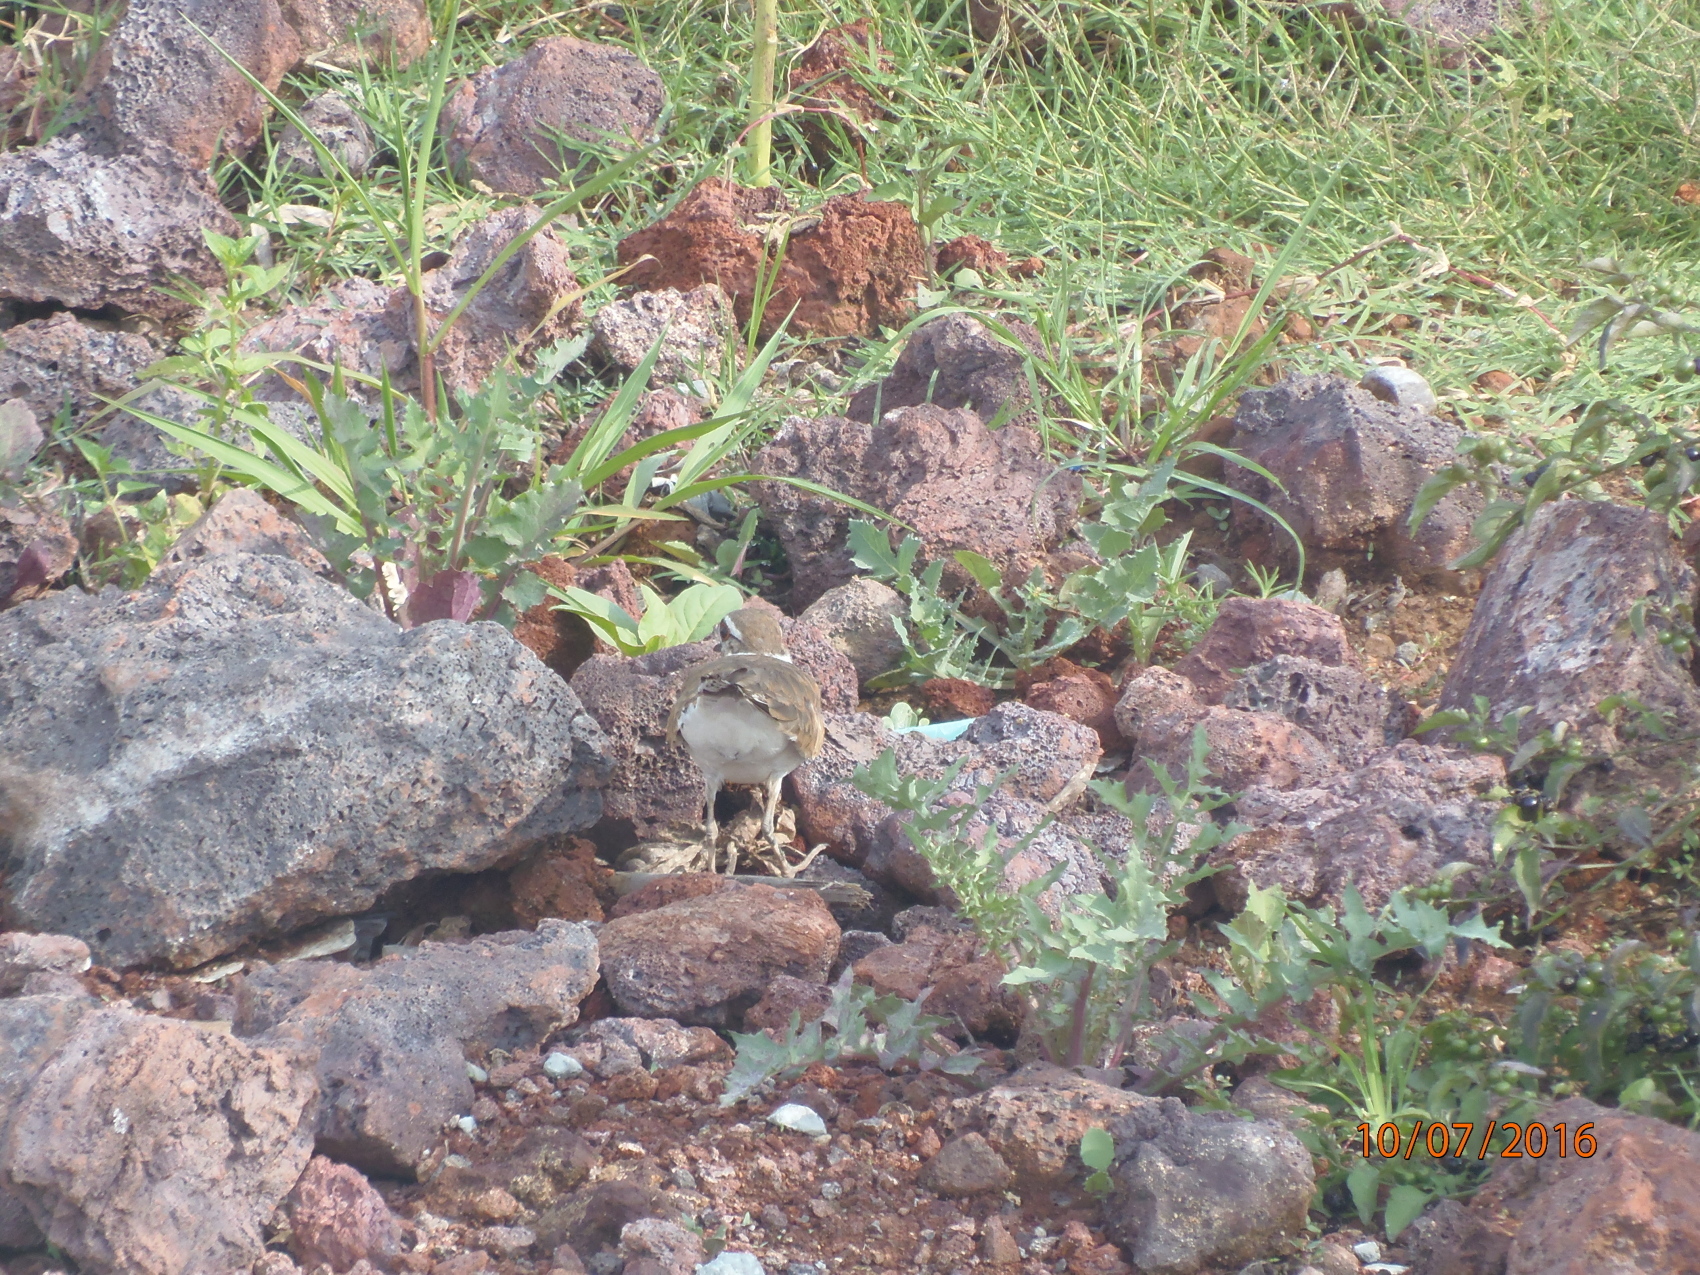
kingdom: Animalia
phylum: Chordata
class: Aves
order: Charadriiformes
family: Charadriidae
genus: Charadrius
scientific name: Charadrius vociferus
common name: Killdeer
